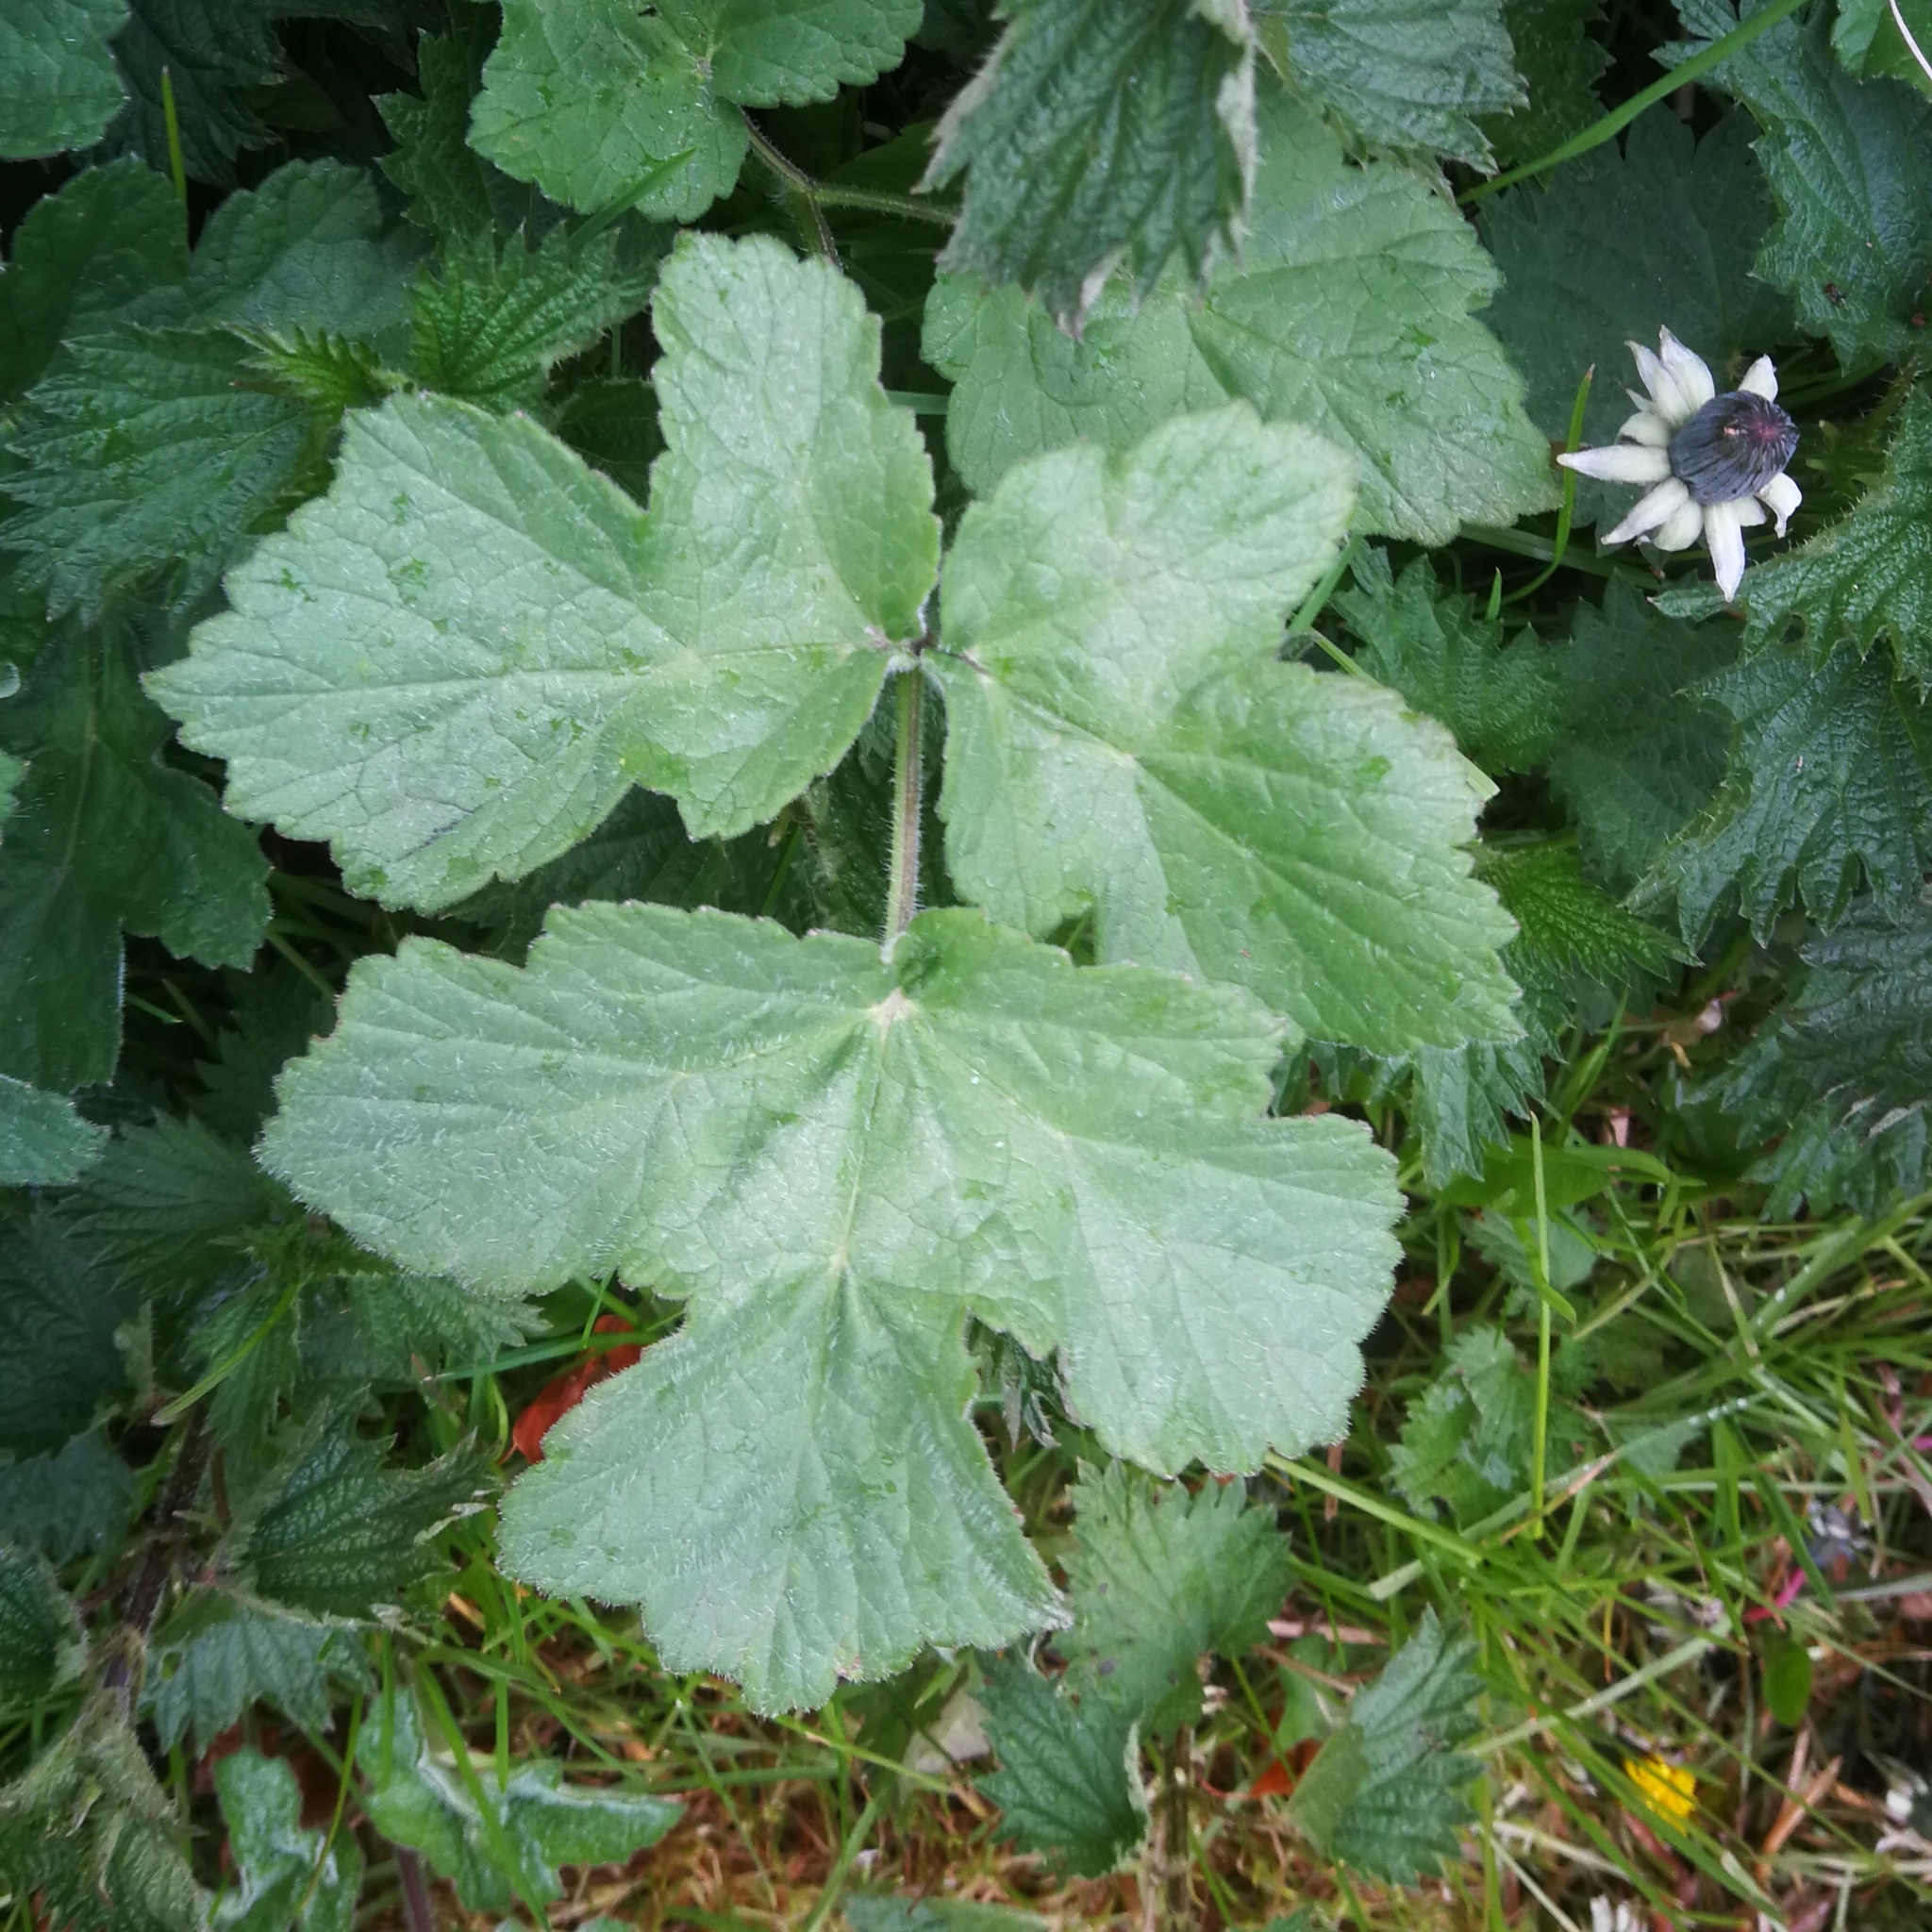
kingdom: Plantae
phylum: Tracheophyta
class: Magnoliopsida
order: Apiales
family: Apiaceae
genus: Heracleum
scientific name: Heracleum sphondylium
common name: Hogweed
